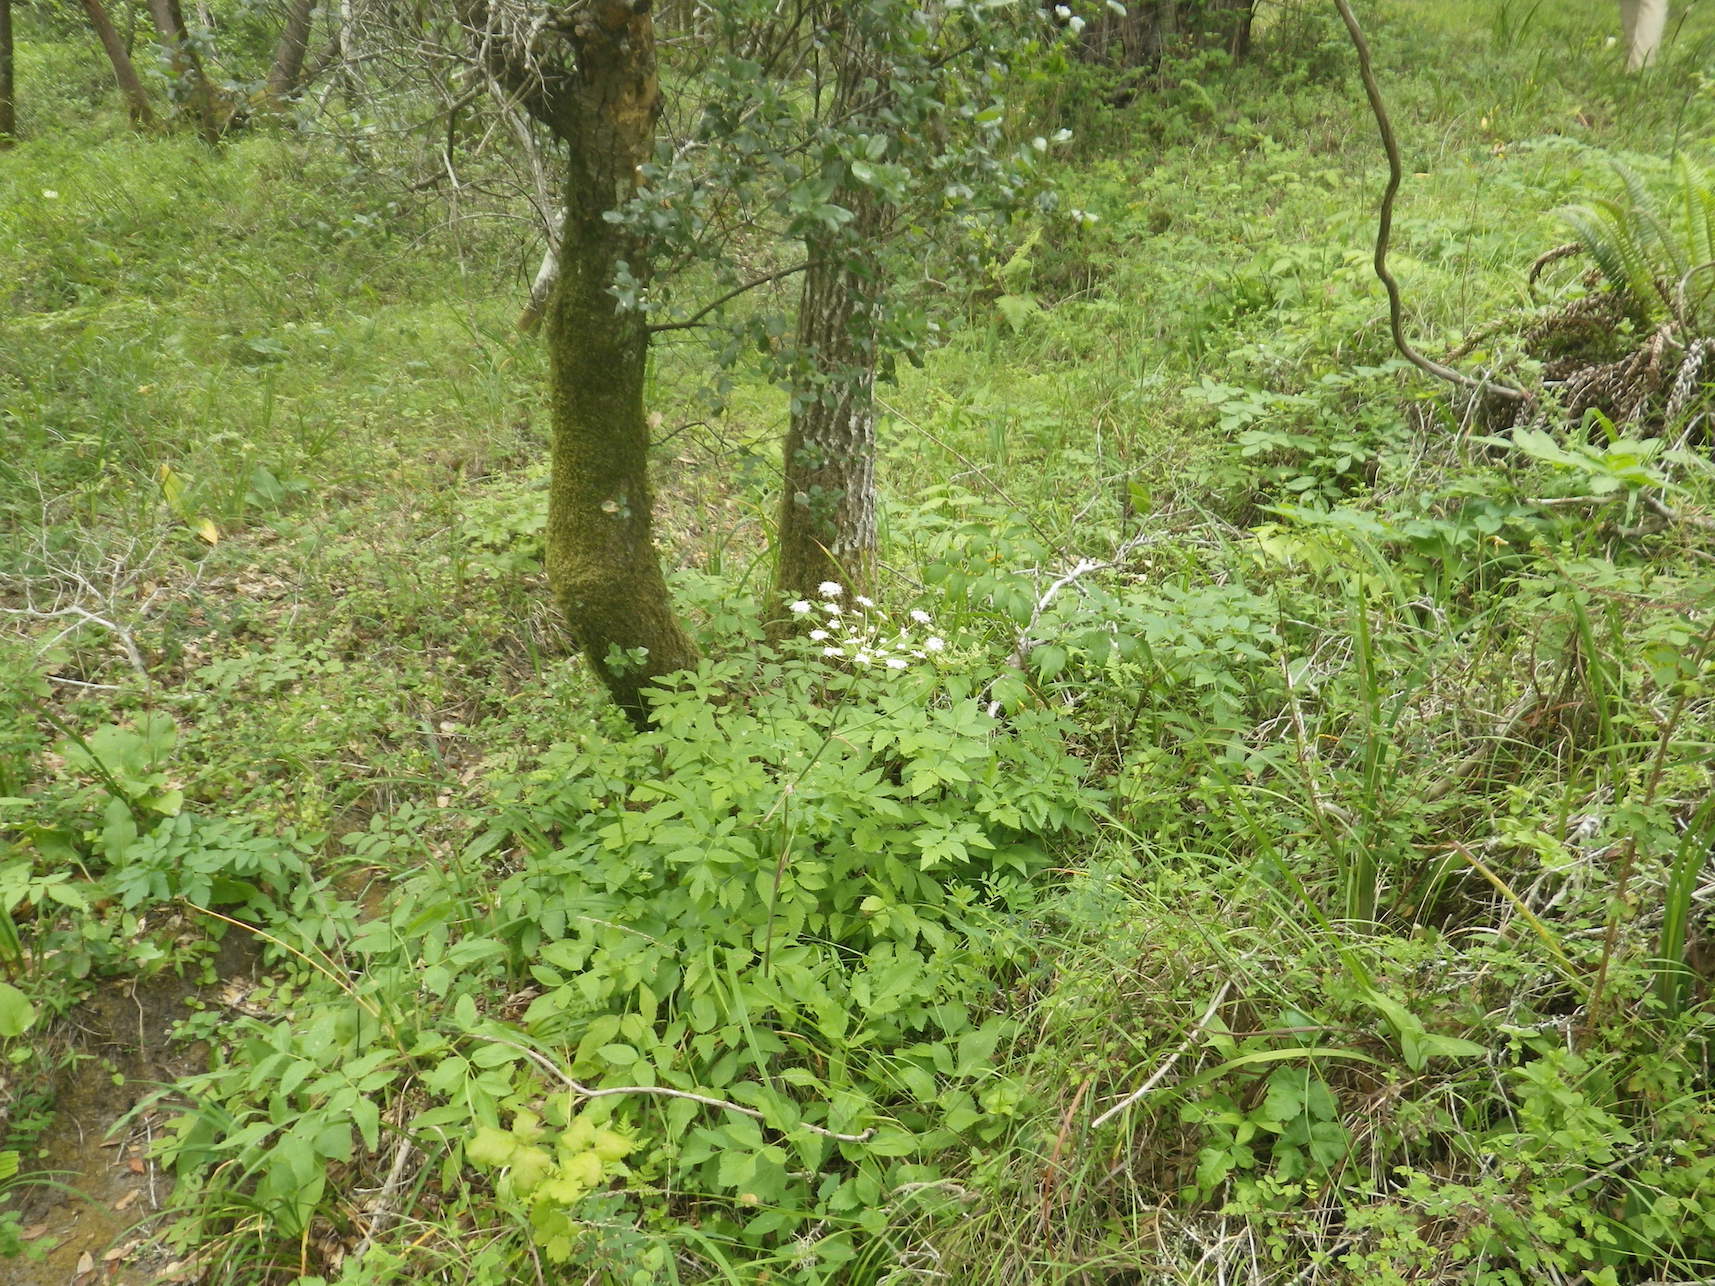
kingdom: Plantae
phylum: Tracheophyta
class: Magnoliopsida
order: Apiales
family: Apiaceae
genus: Angelica
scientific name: Angelica californica
